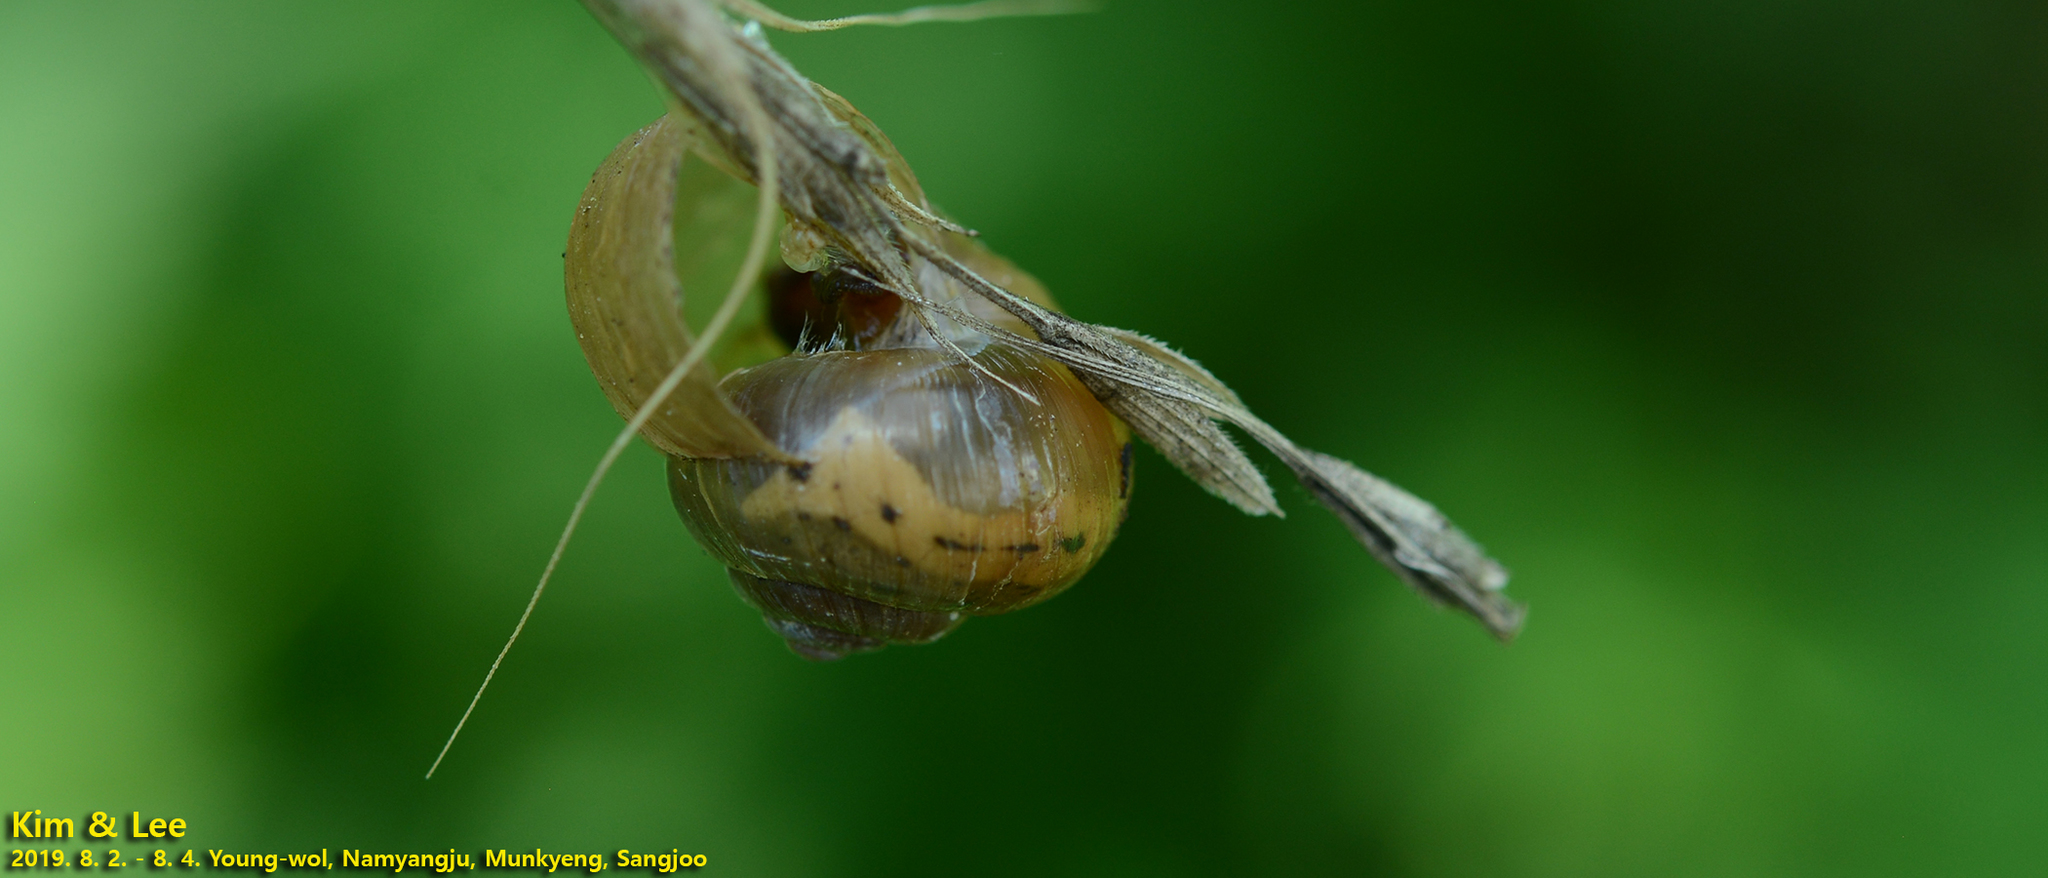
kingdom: Animalia
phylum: Mollusca
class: Gastropoda
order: Stylommatophora
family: Camaenidae
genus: Acusta
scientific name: Acusta redfieldi
